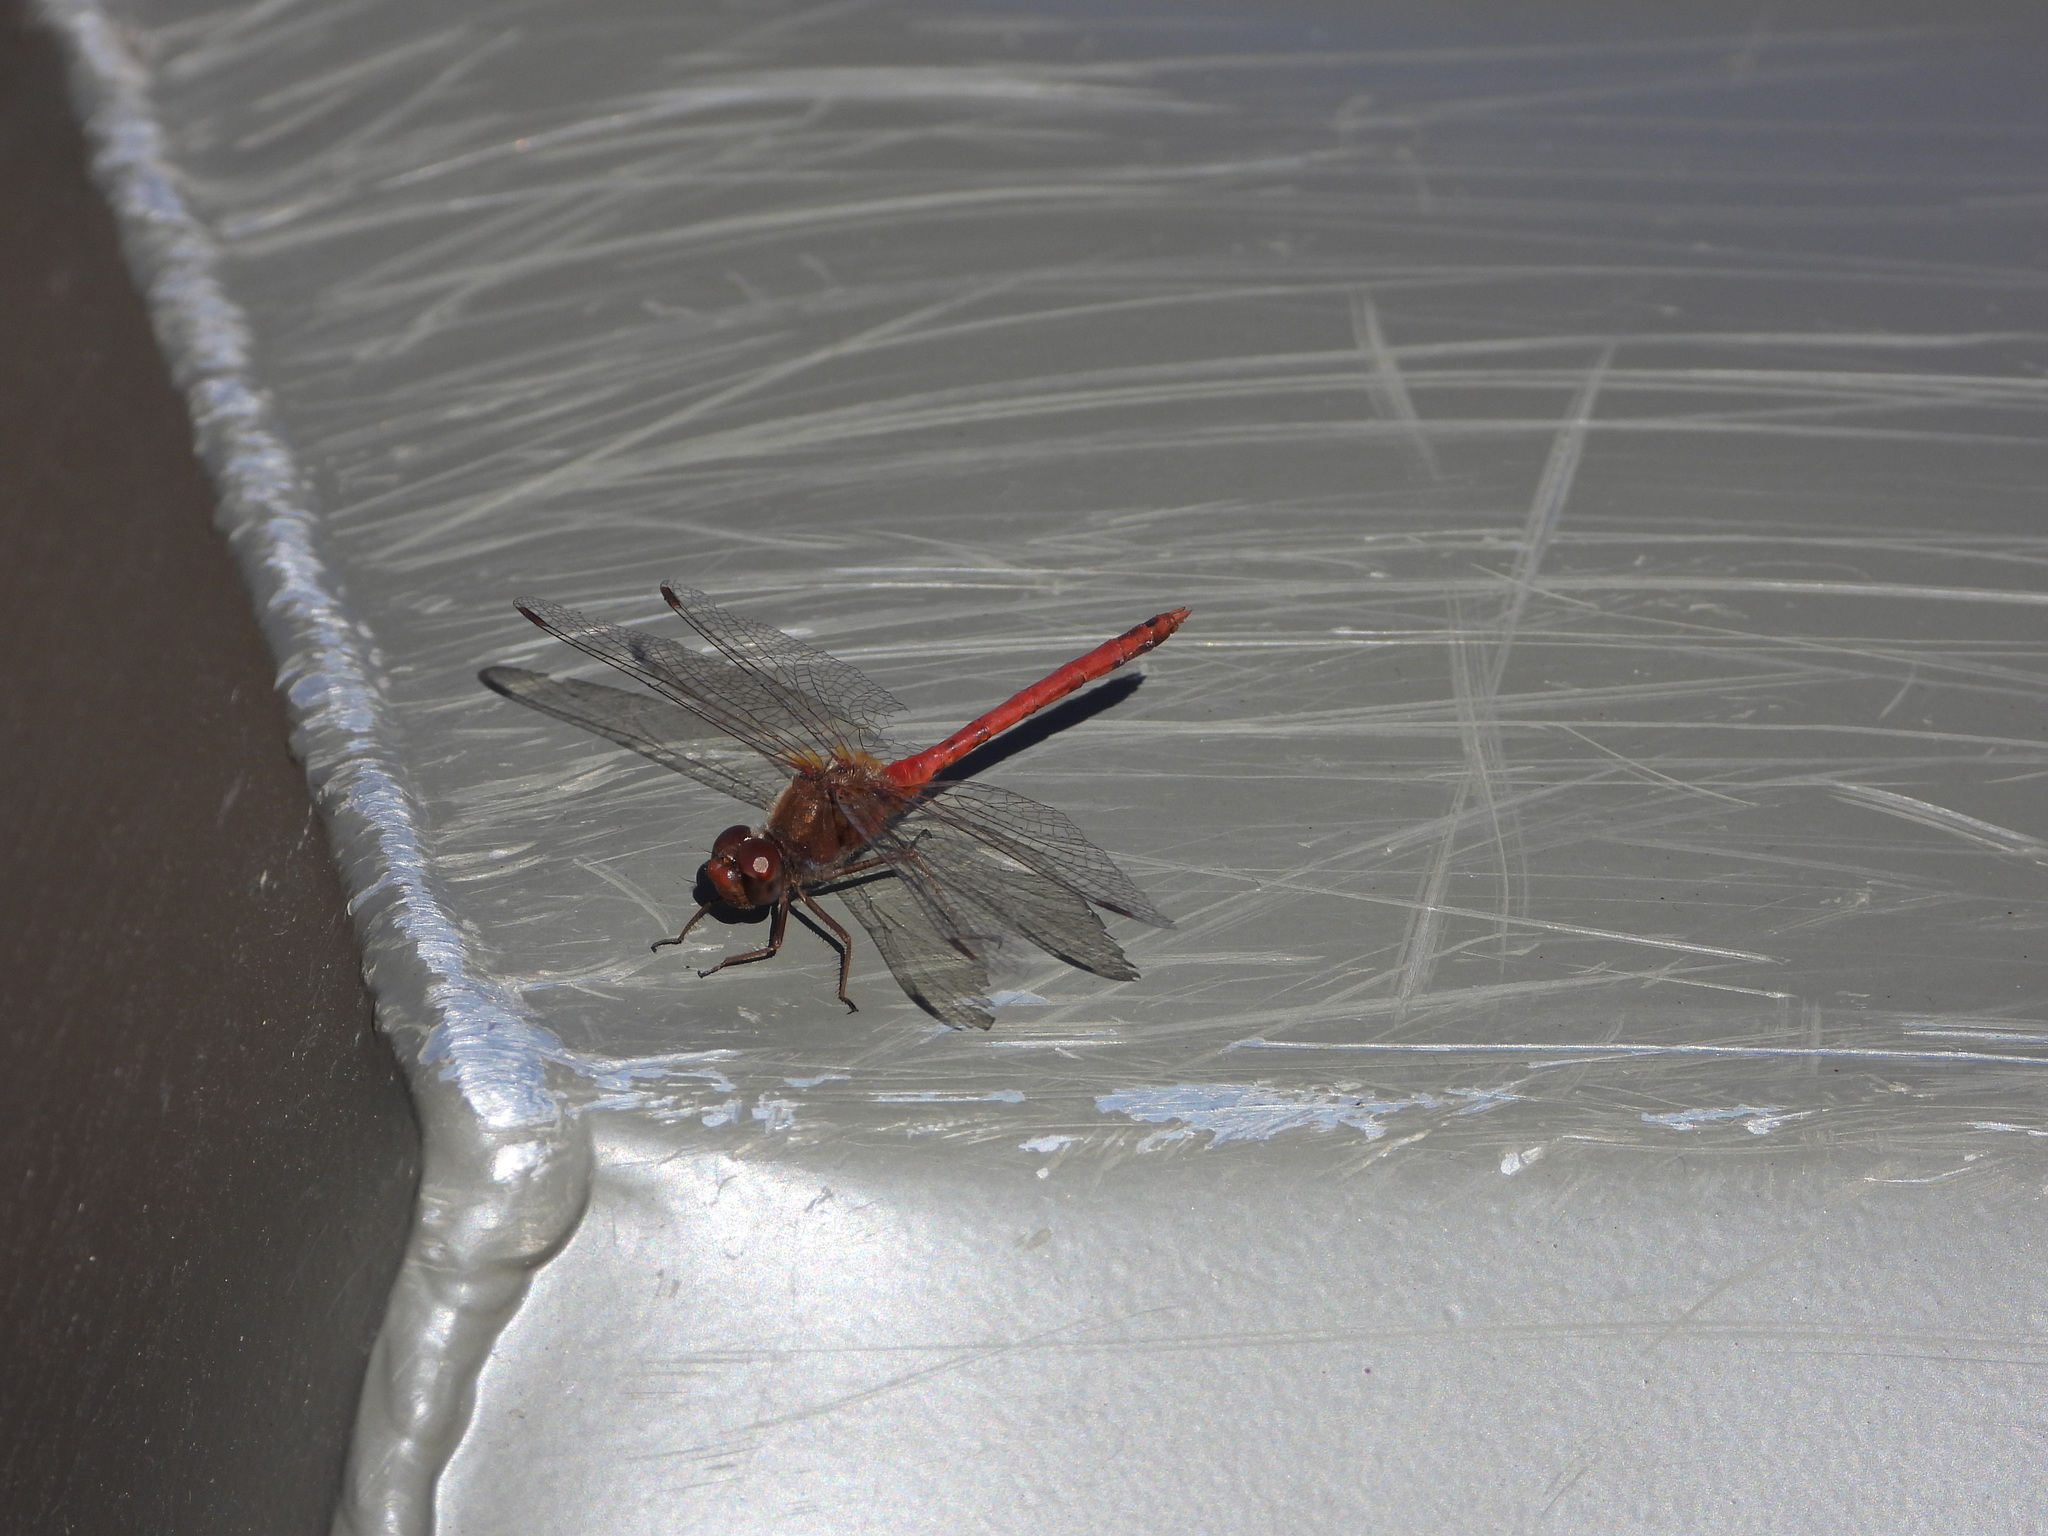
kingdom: Animalia
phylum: Arthropoda
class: Insecta
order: Odonata
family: Libellulidae
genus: Sympetrum
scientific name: Sympetrum vicinum
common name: Autumn meadowhawk
